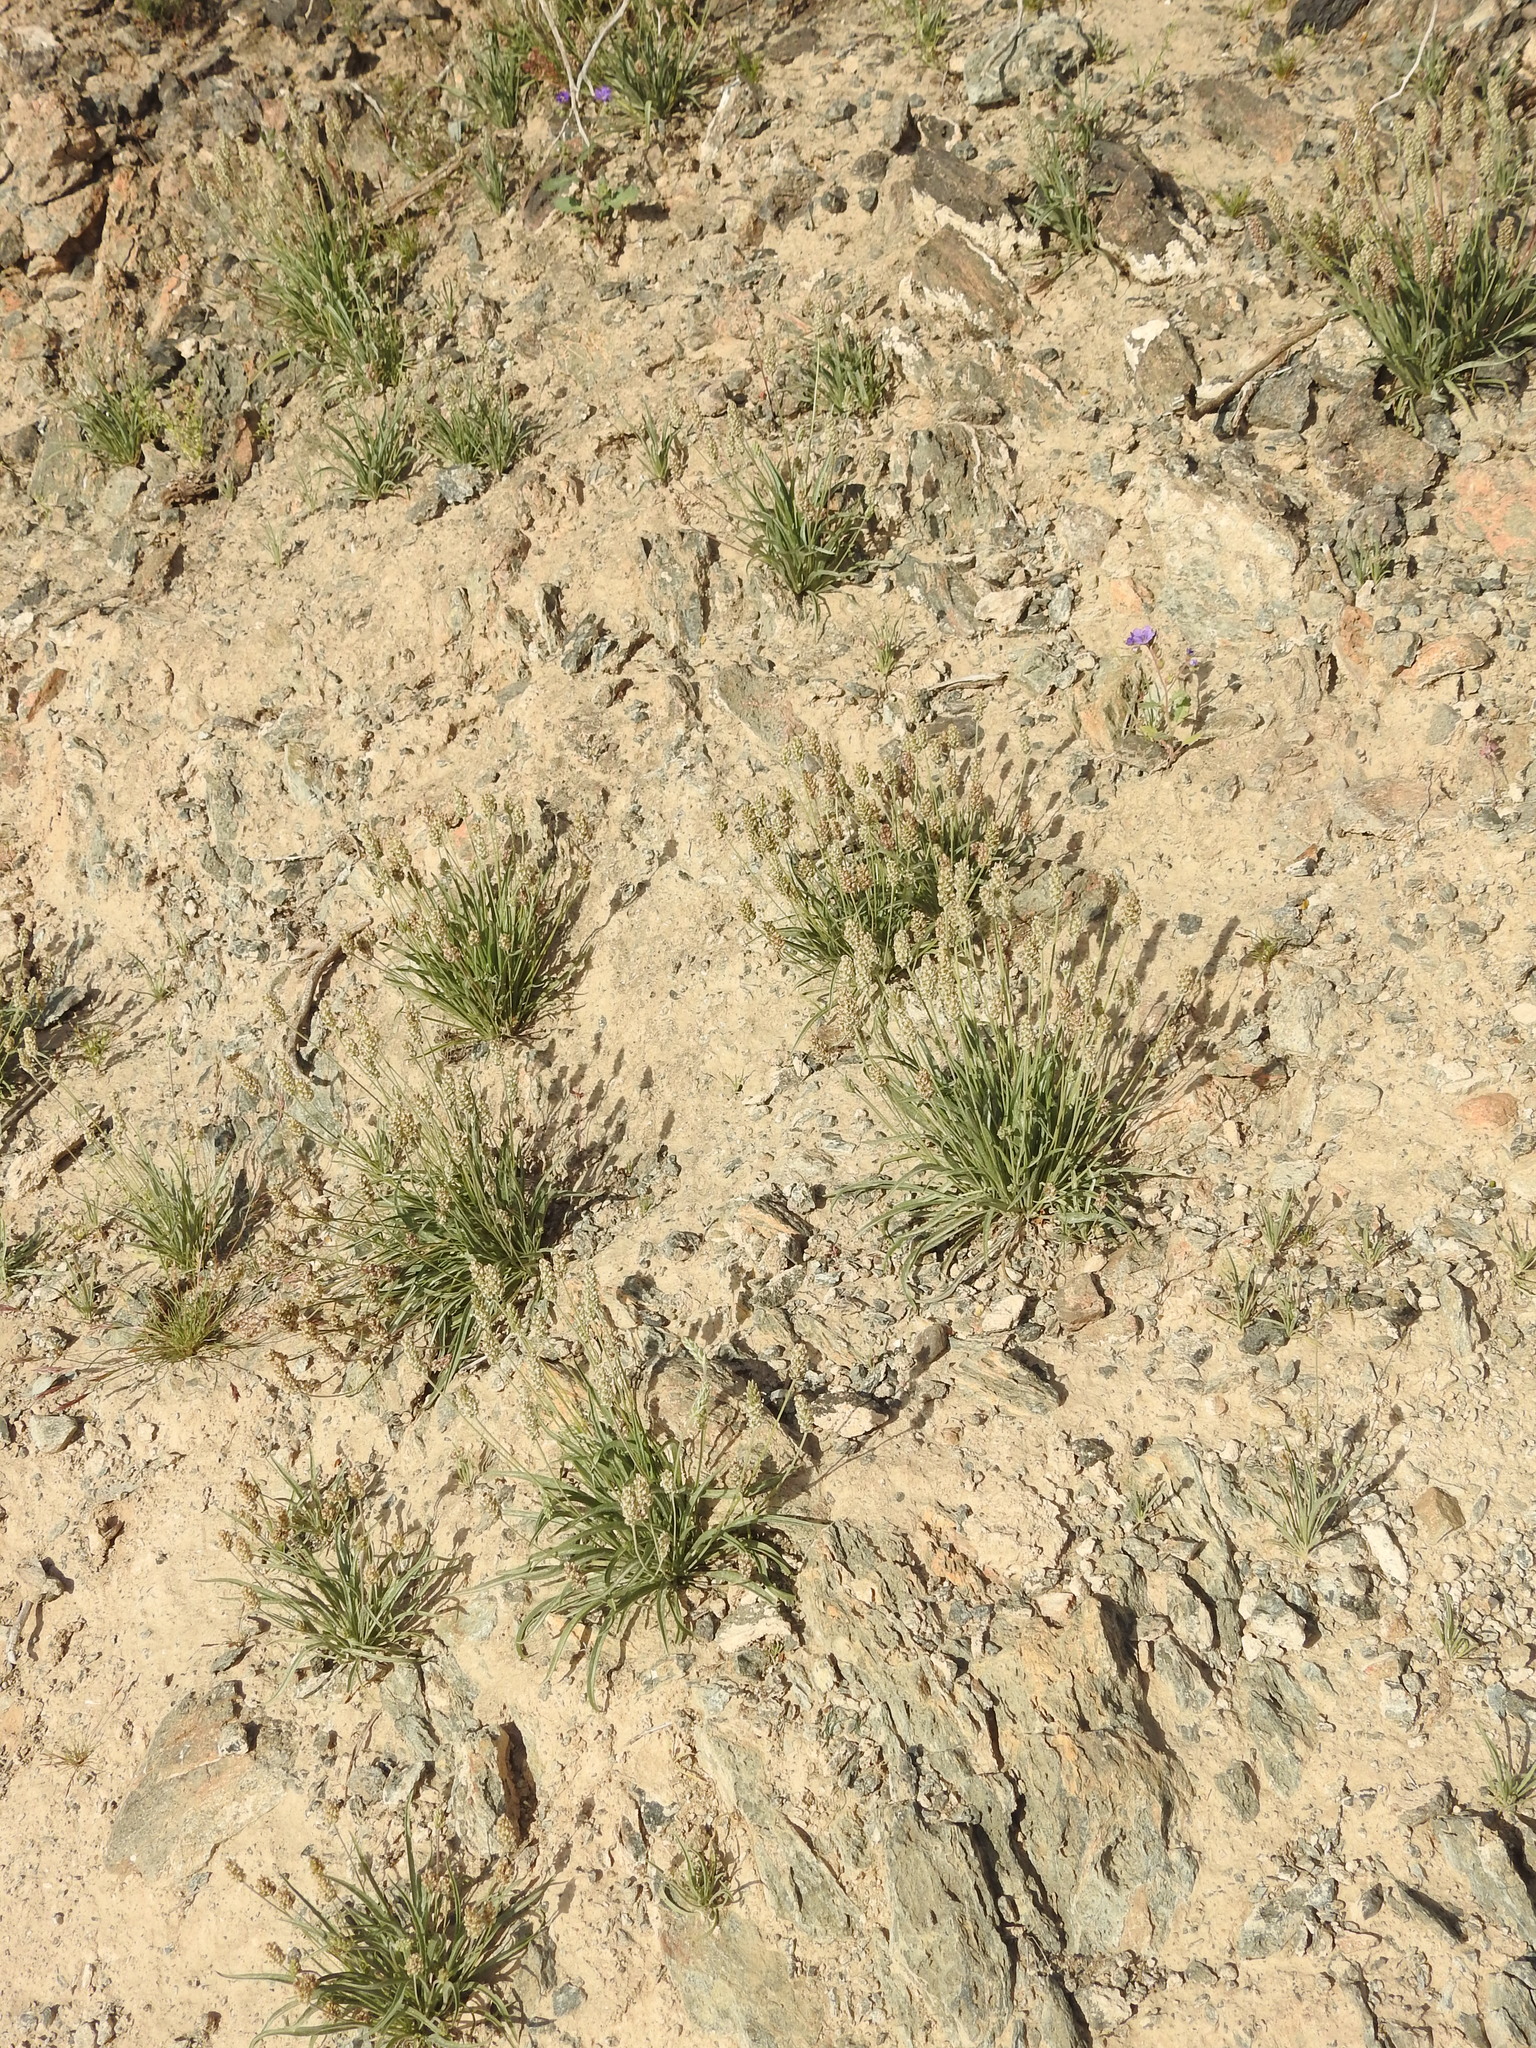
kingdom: Plantae
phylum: Tracheophyta
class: Magnoliopsida
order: Lamiales
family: Plantaginaceae
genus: Plantago
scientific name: Plantago ovata
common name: Blond plantain
